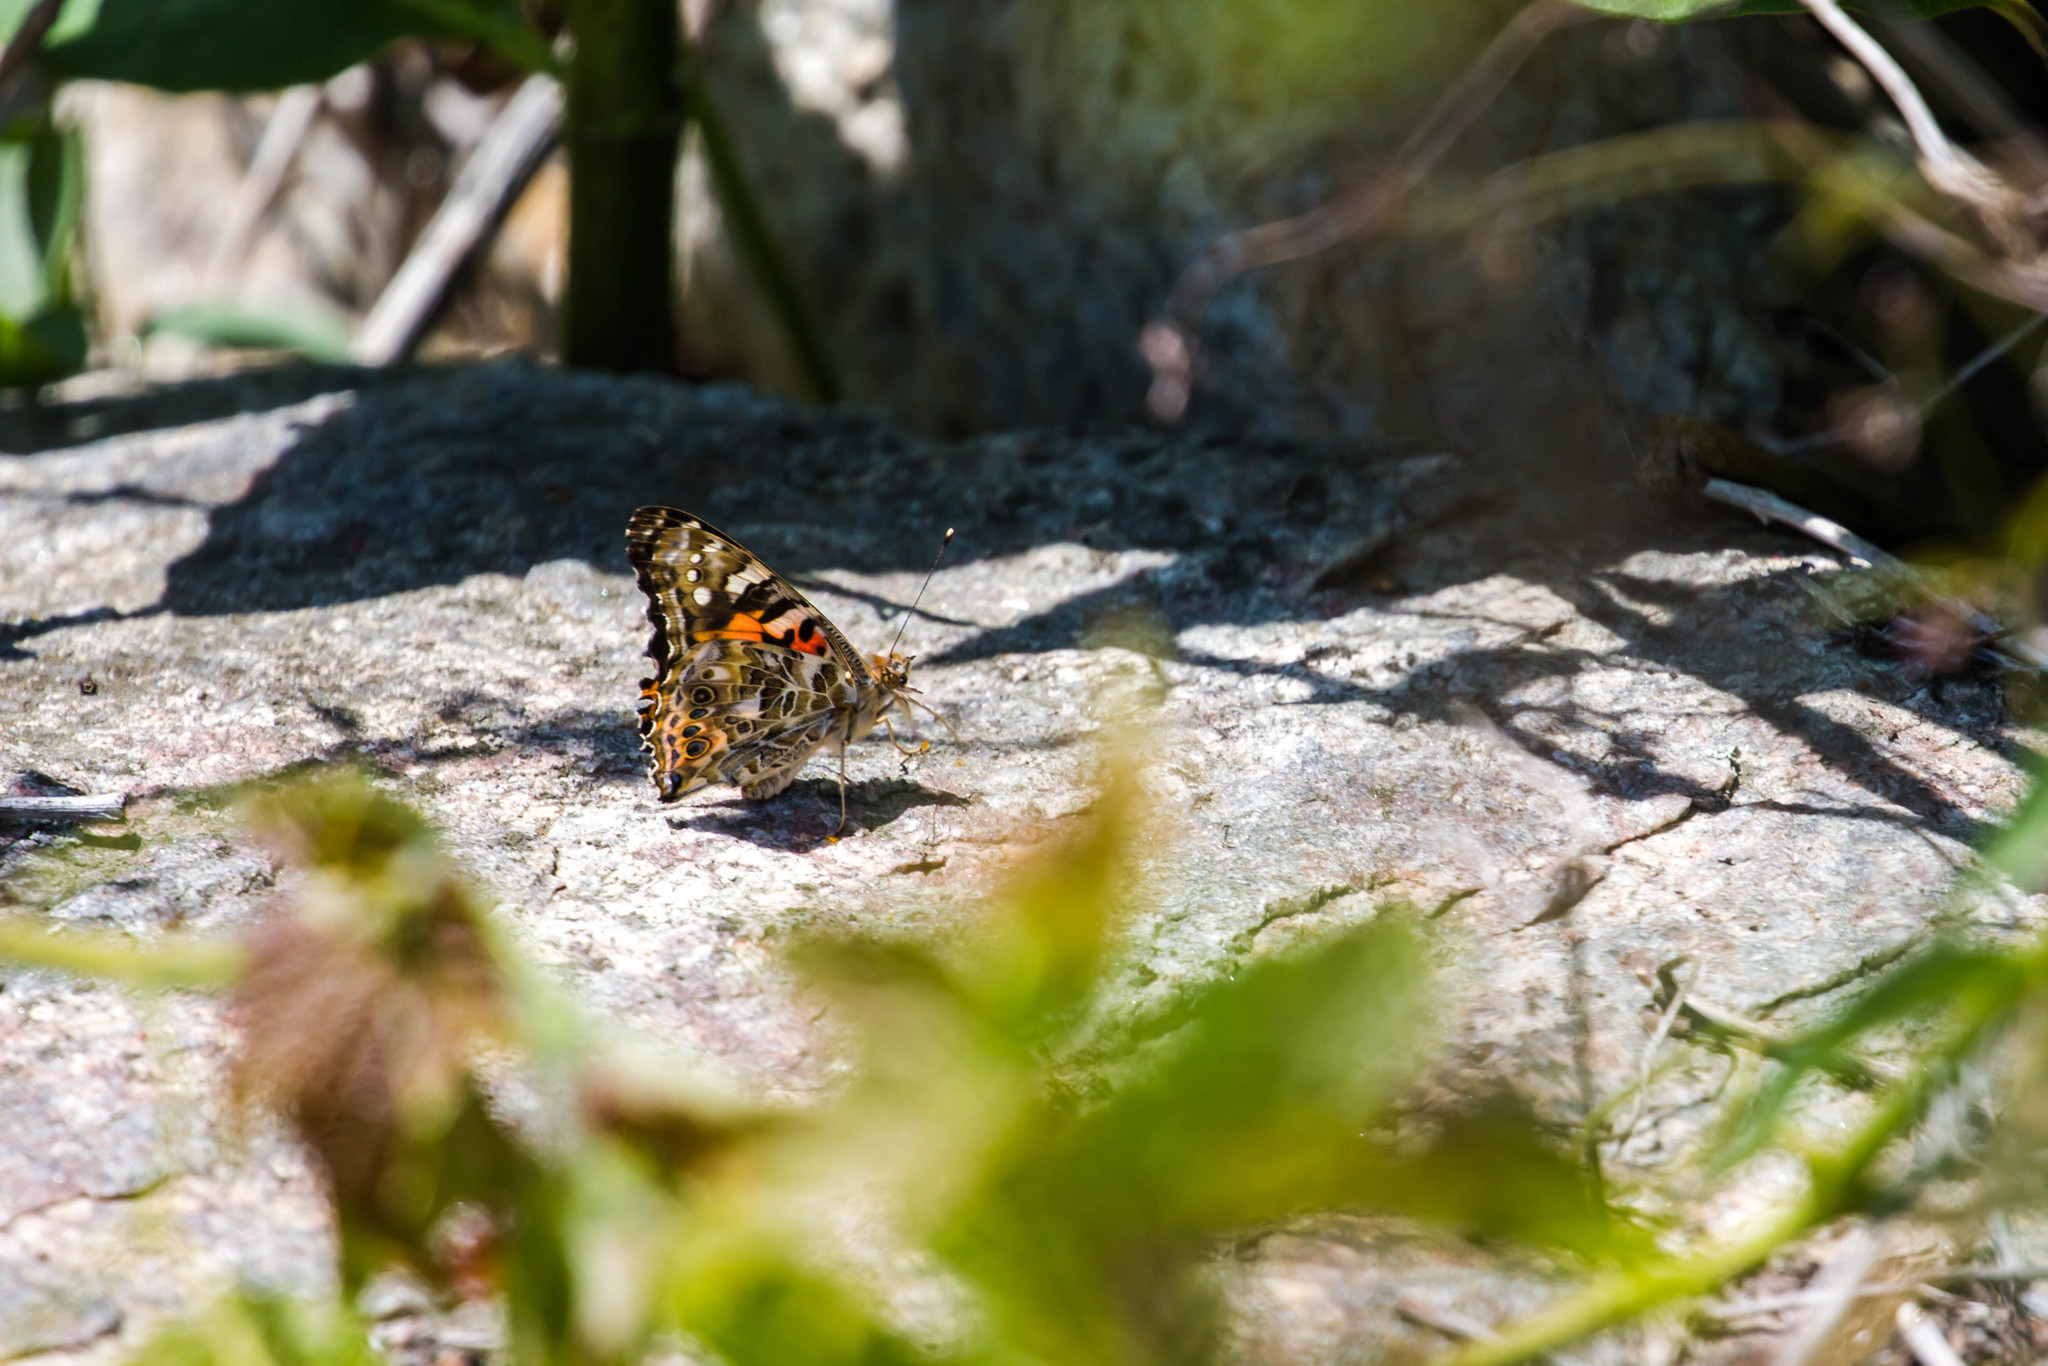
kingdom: Animalia
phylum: Arthropoda
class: Insecta
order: Lepidoptera
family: Nymphalidae
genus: Vanessa
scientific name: Vanessa cardui
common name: Painted lady
